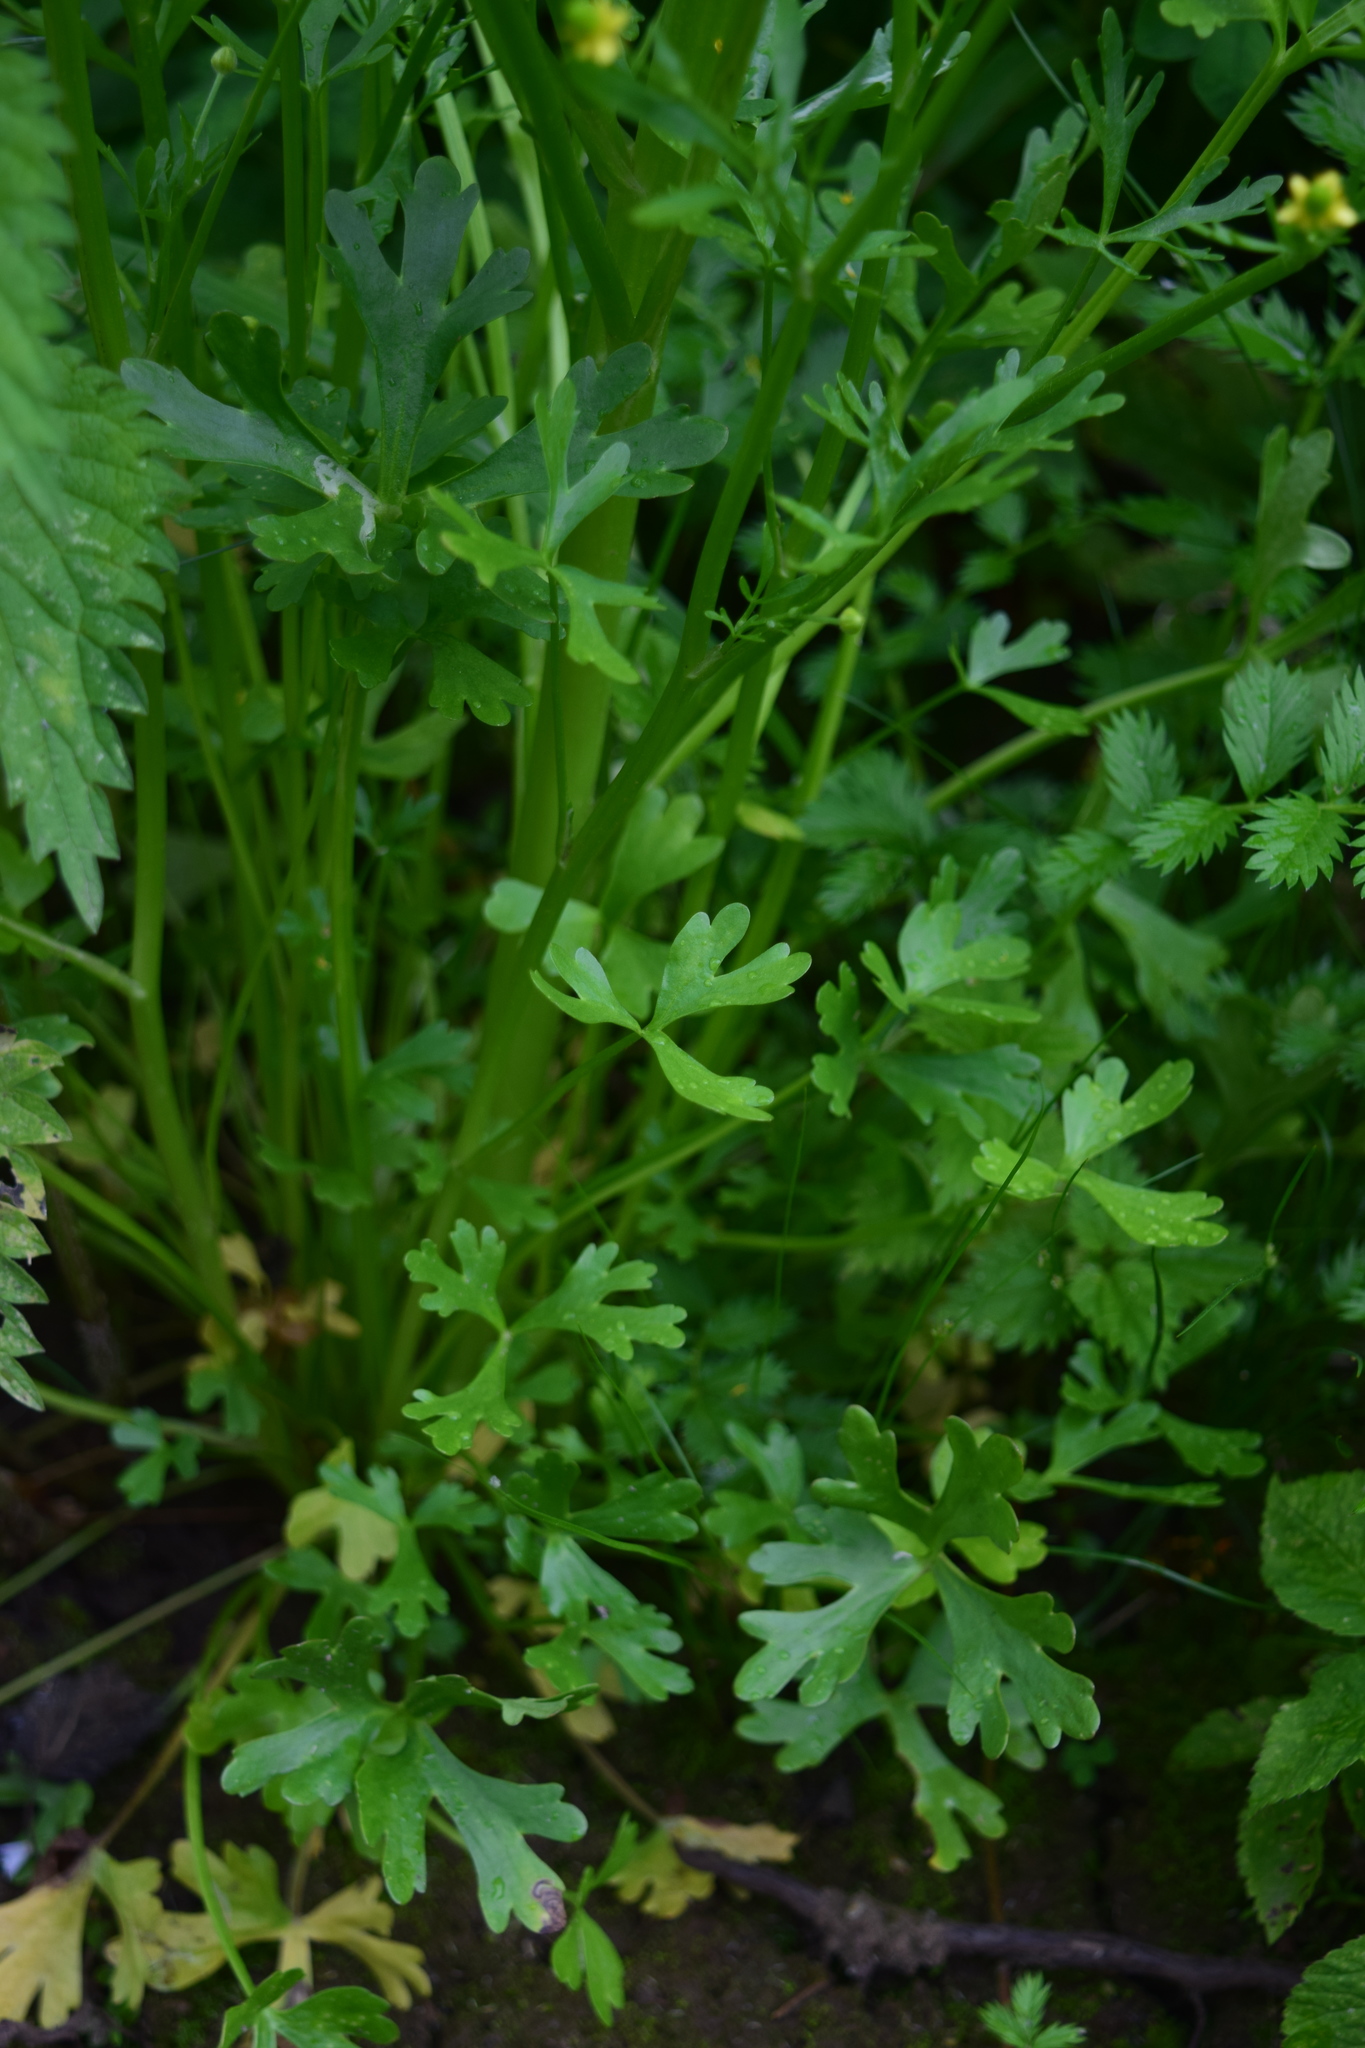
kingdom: Plantae
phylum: Tracheophyta
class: Magnoliopsida
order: Ranunculales
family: Ranunculaceae
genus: Ranunculus
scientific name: Ranunculus sceleratus
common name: Celery-leaved buttercup
